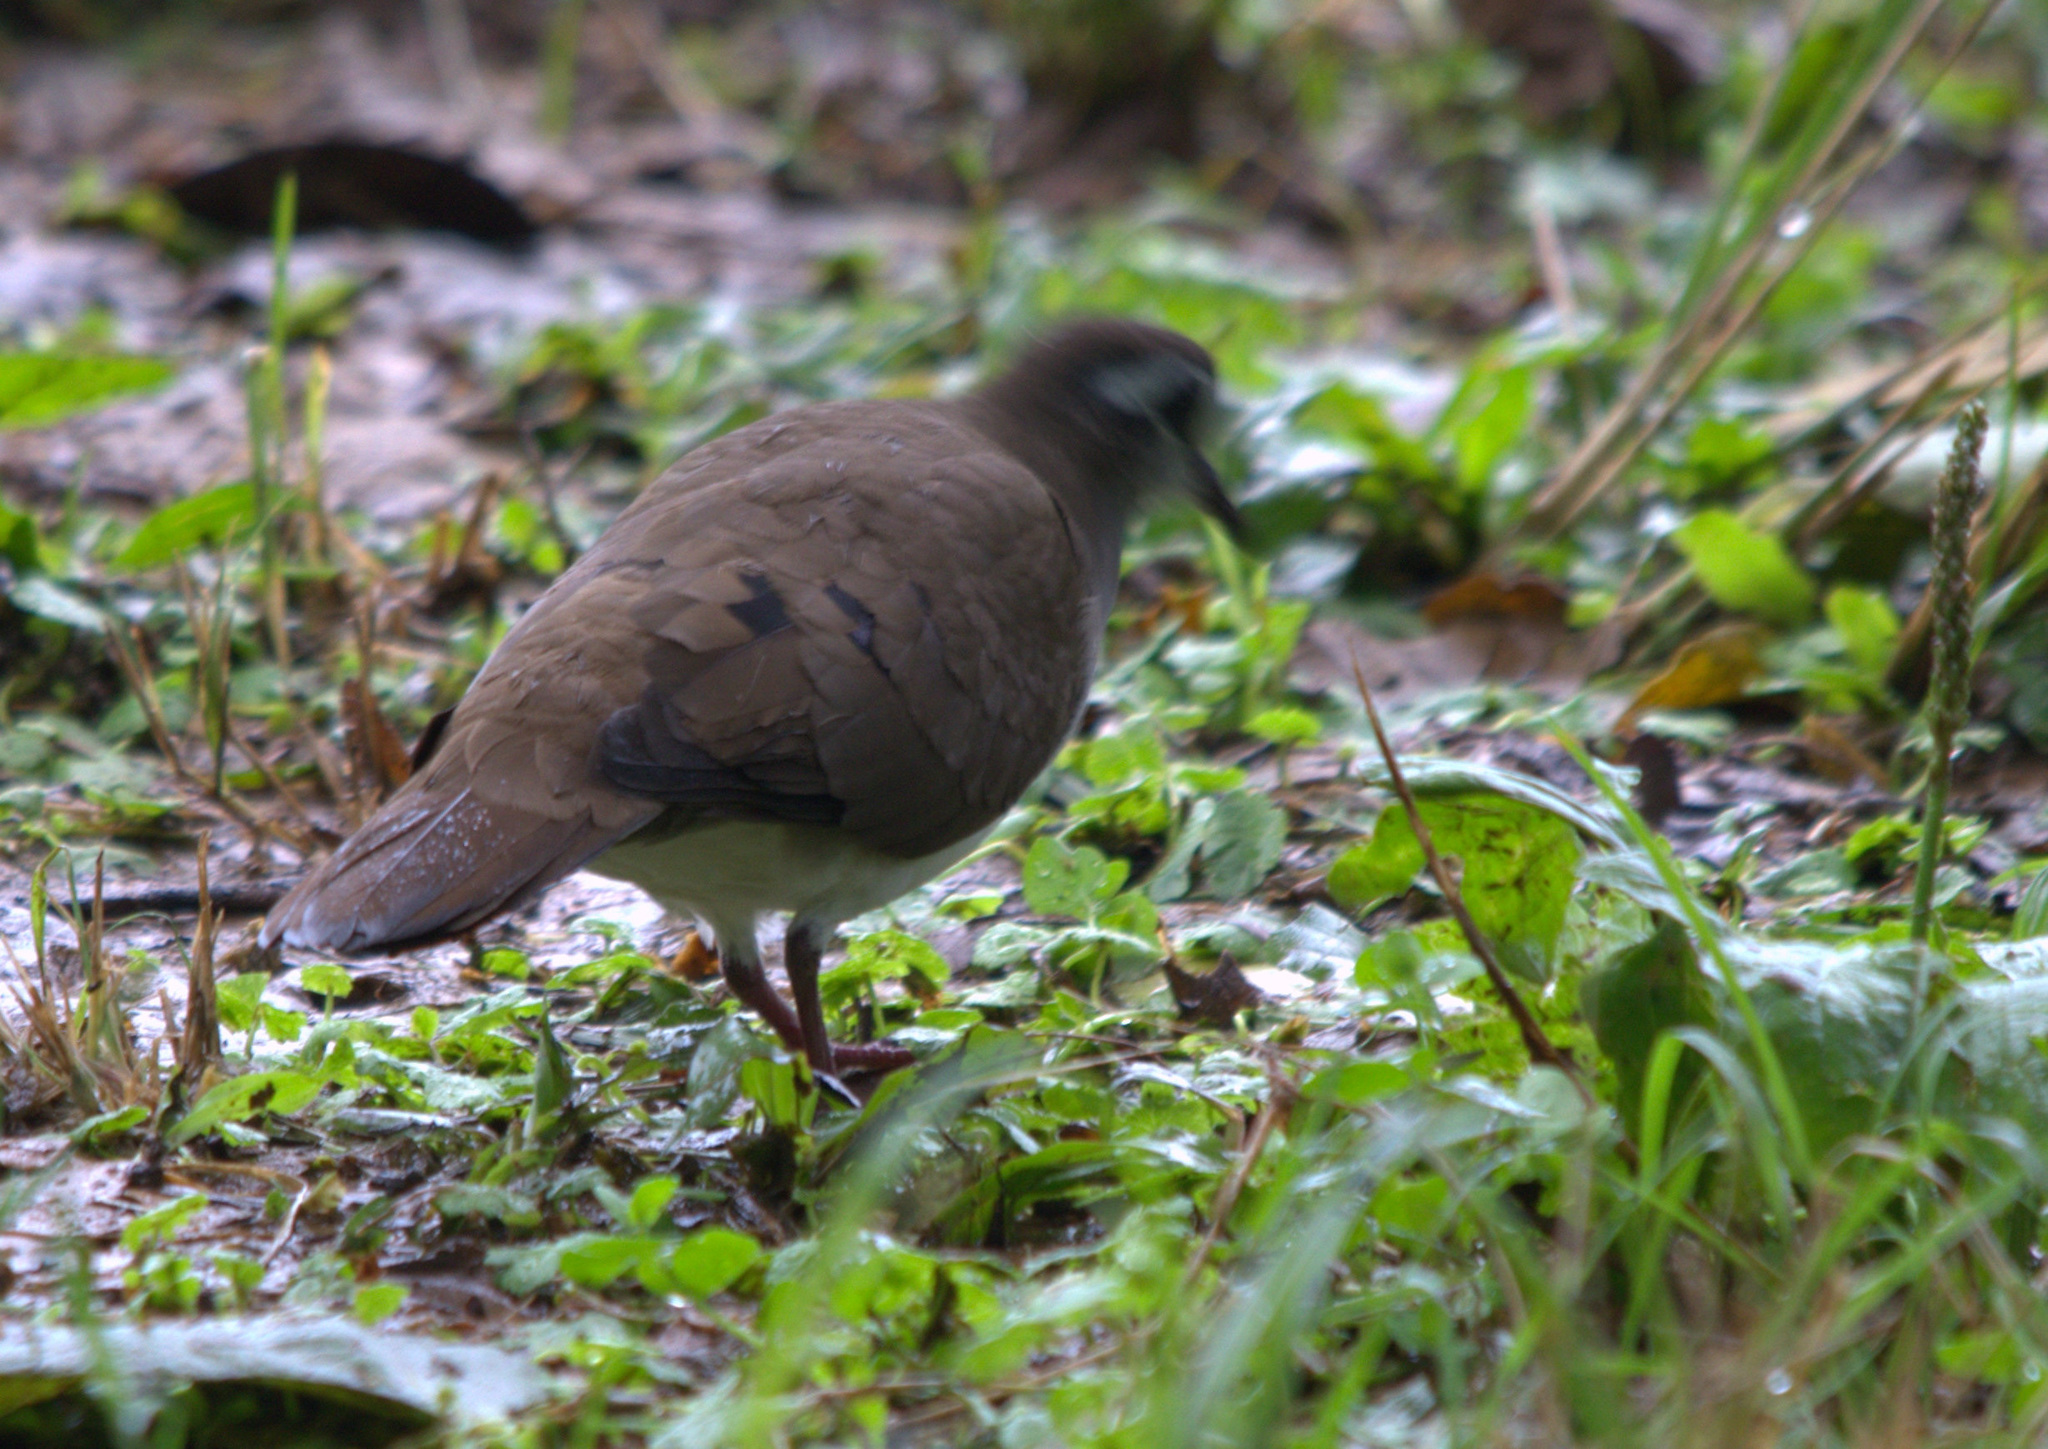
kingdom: Animalia
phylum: Chordata
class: Aves
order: Columbiformes
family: Columbidae
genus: Turtur
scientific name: Turtur tympanistria
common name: Tambourine dove
